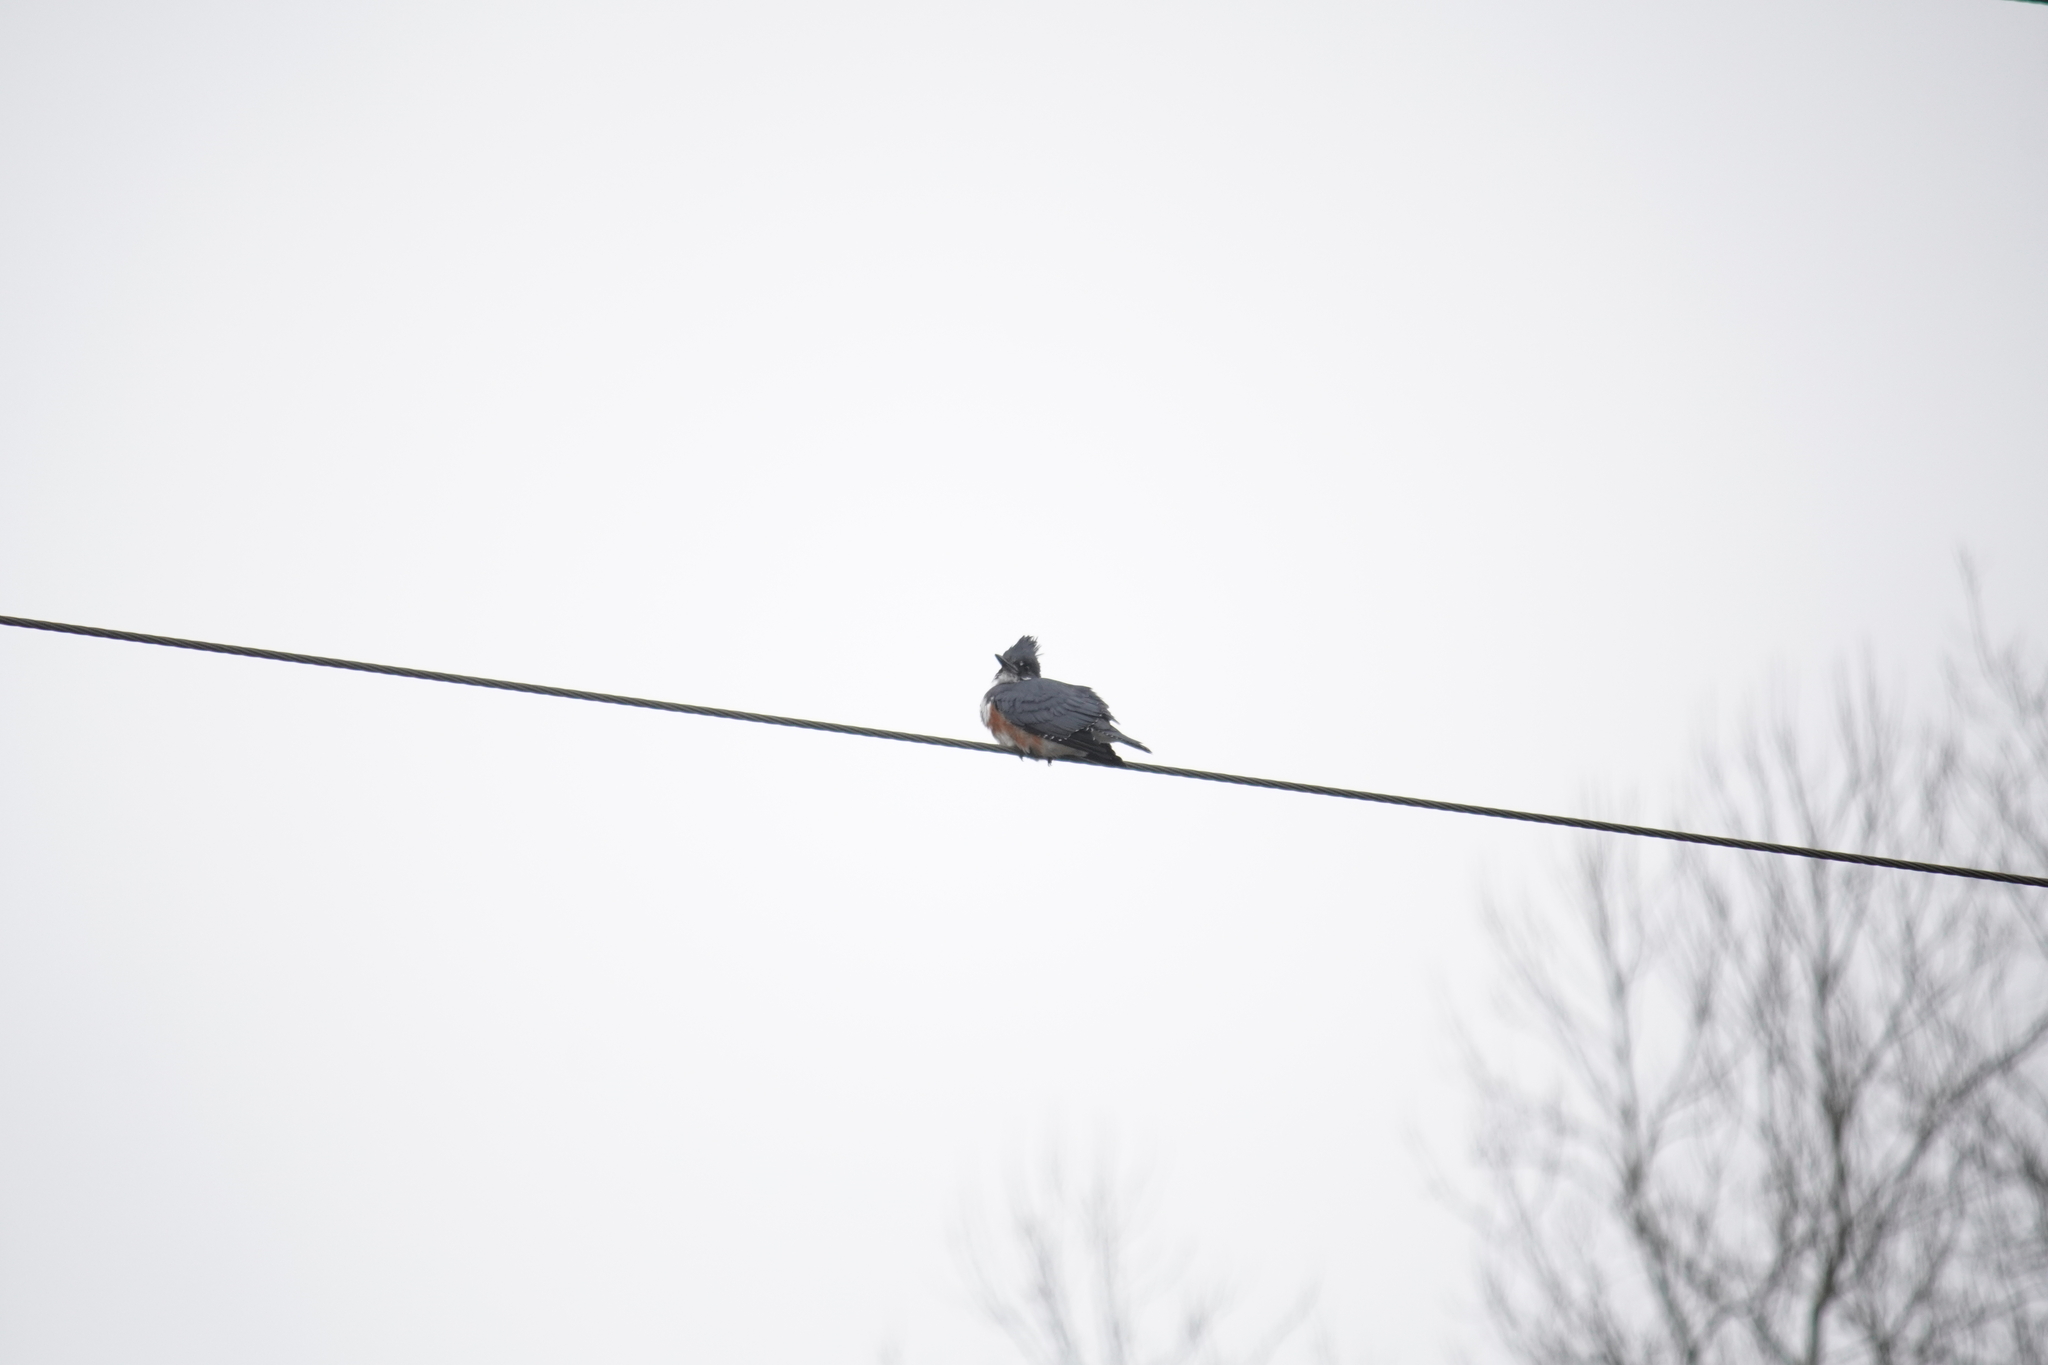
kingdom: Animalia
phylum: Chordata
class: Aves
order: Coraciiformes
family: Alcedinidae
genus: Megaceryle
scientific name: Megaceryle alcyon
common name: Belted kingfisher
